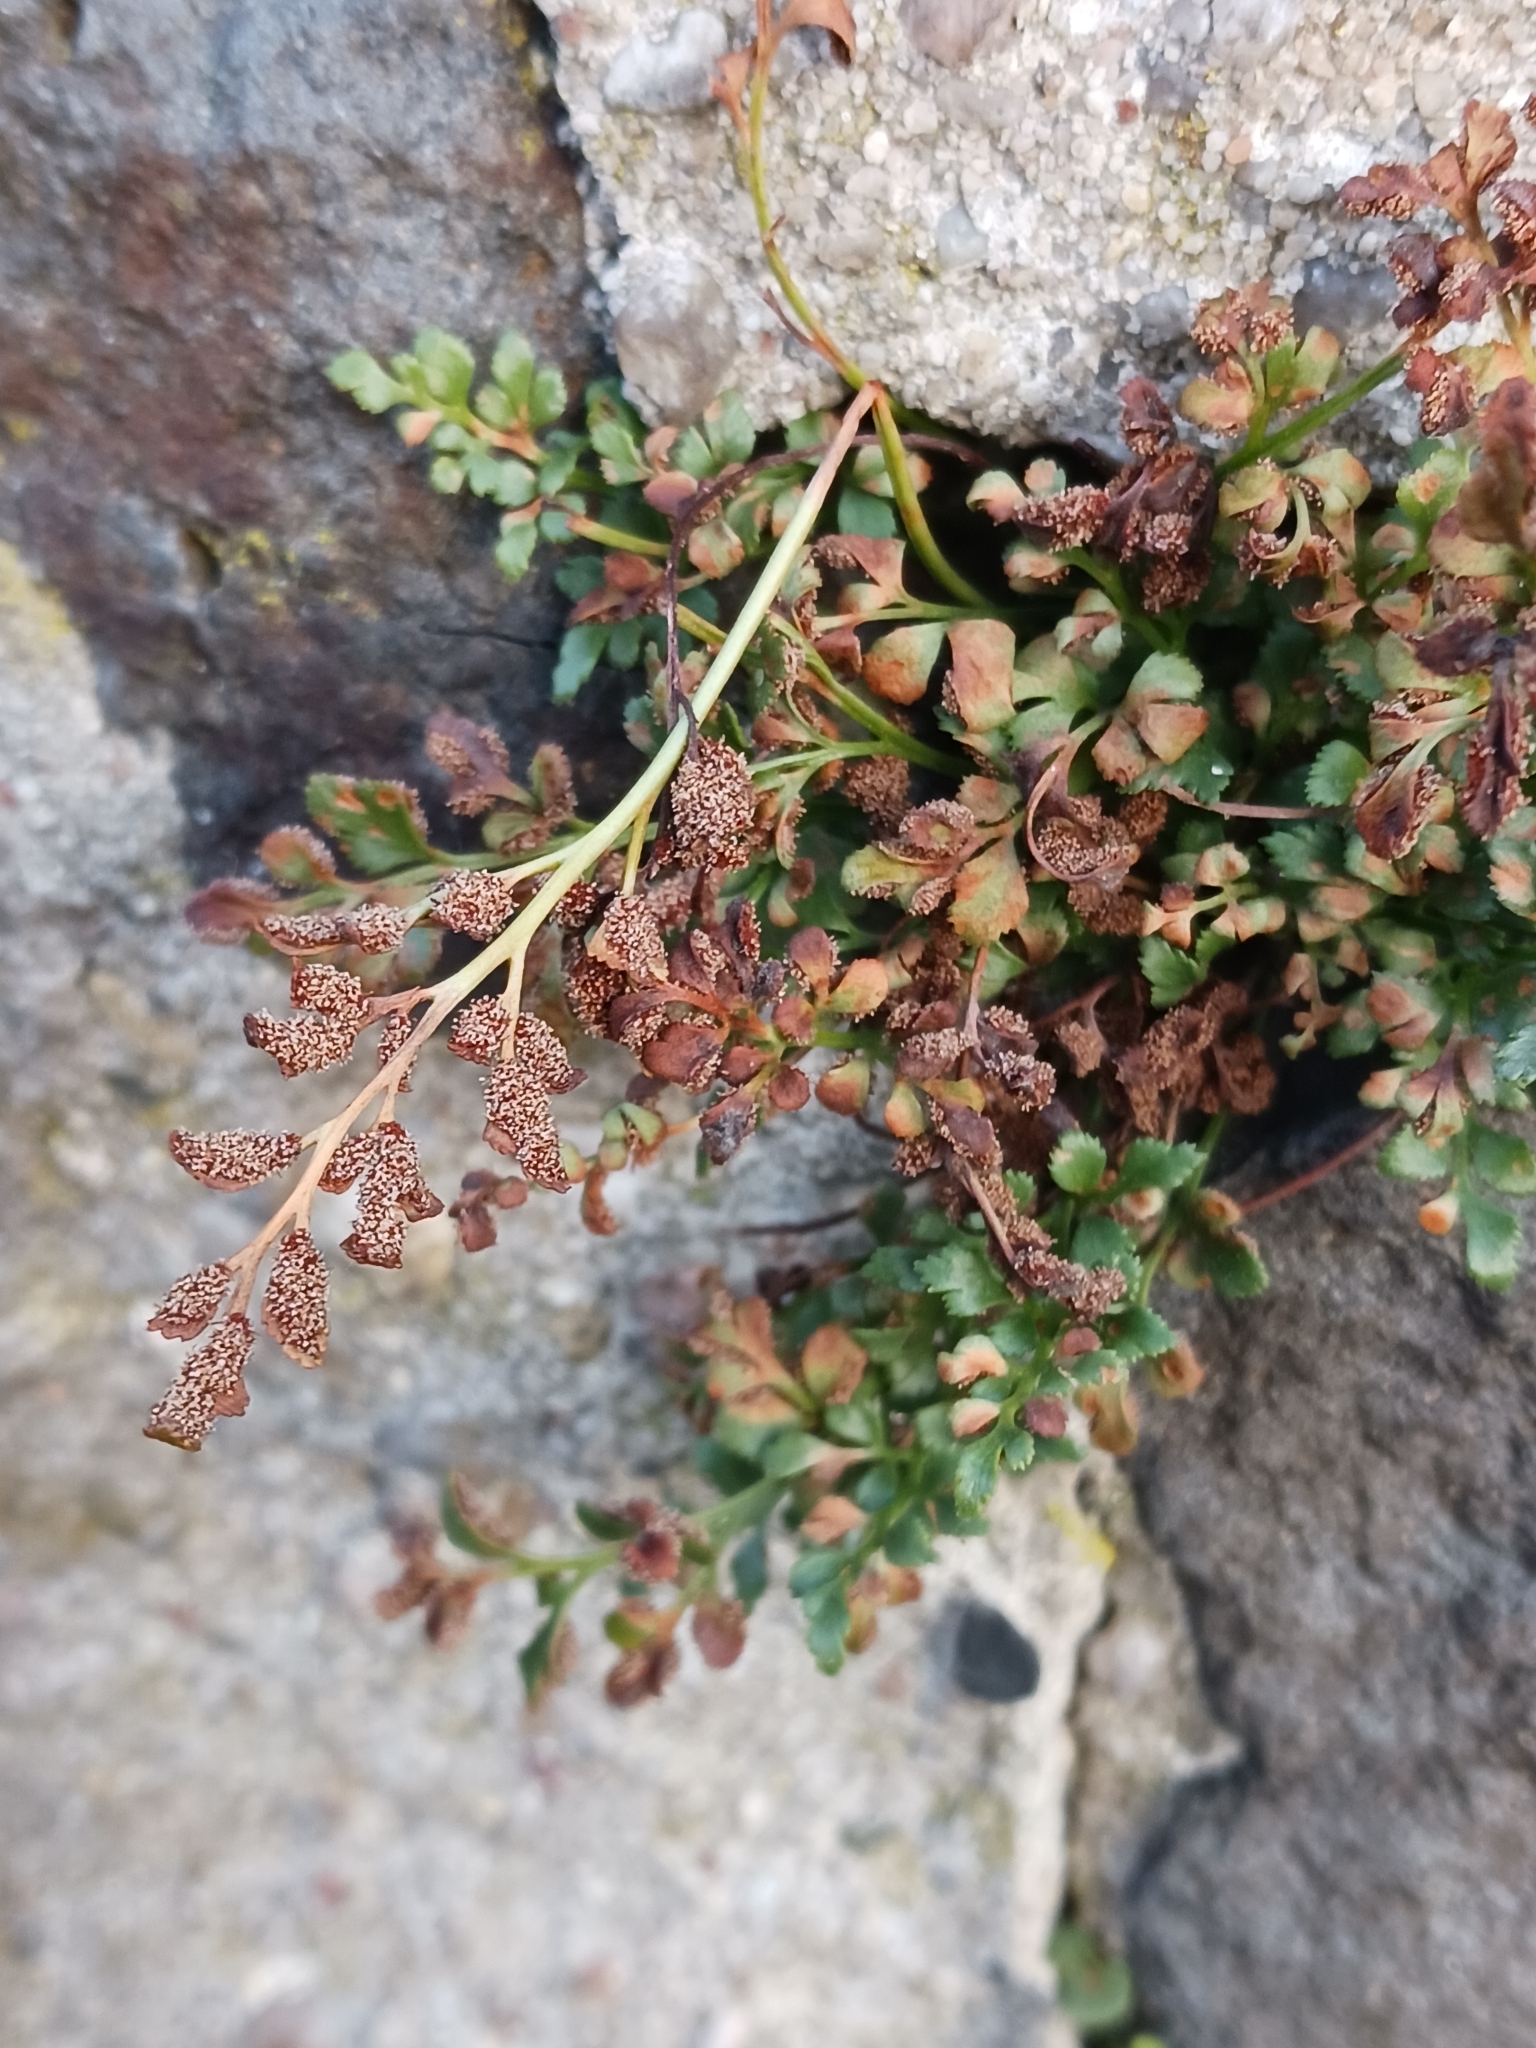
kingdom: Plantae
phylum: Tracheophyta
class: Polypodiopsida
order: Polypodiales
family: Aspleniaceae
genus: Asplenium
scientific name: Asplenium ruta-muraria
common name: Wall-rue
